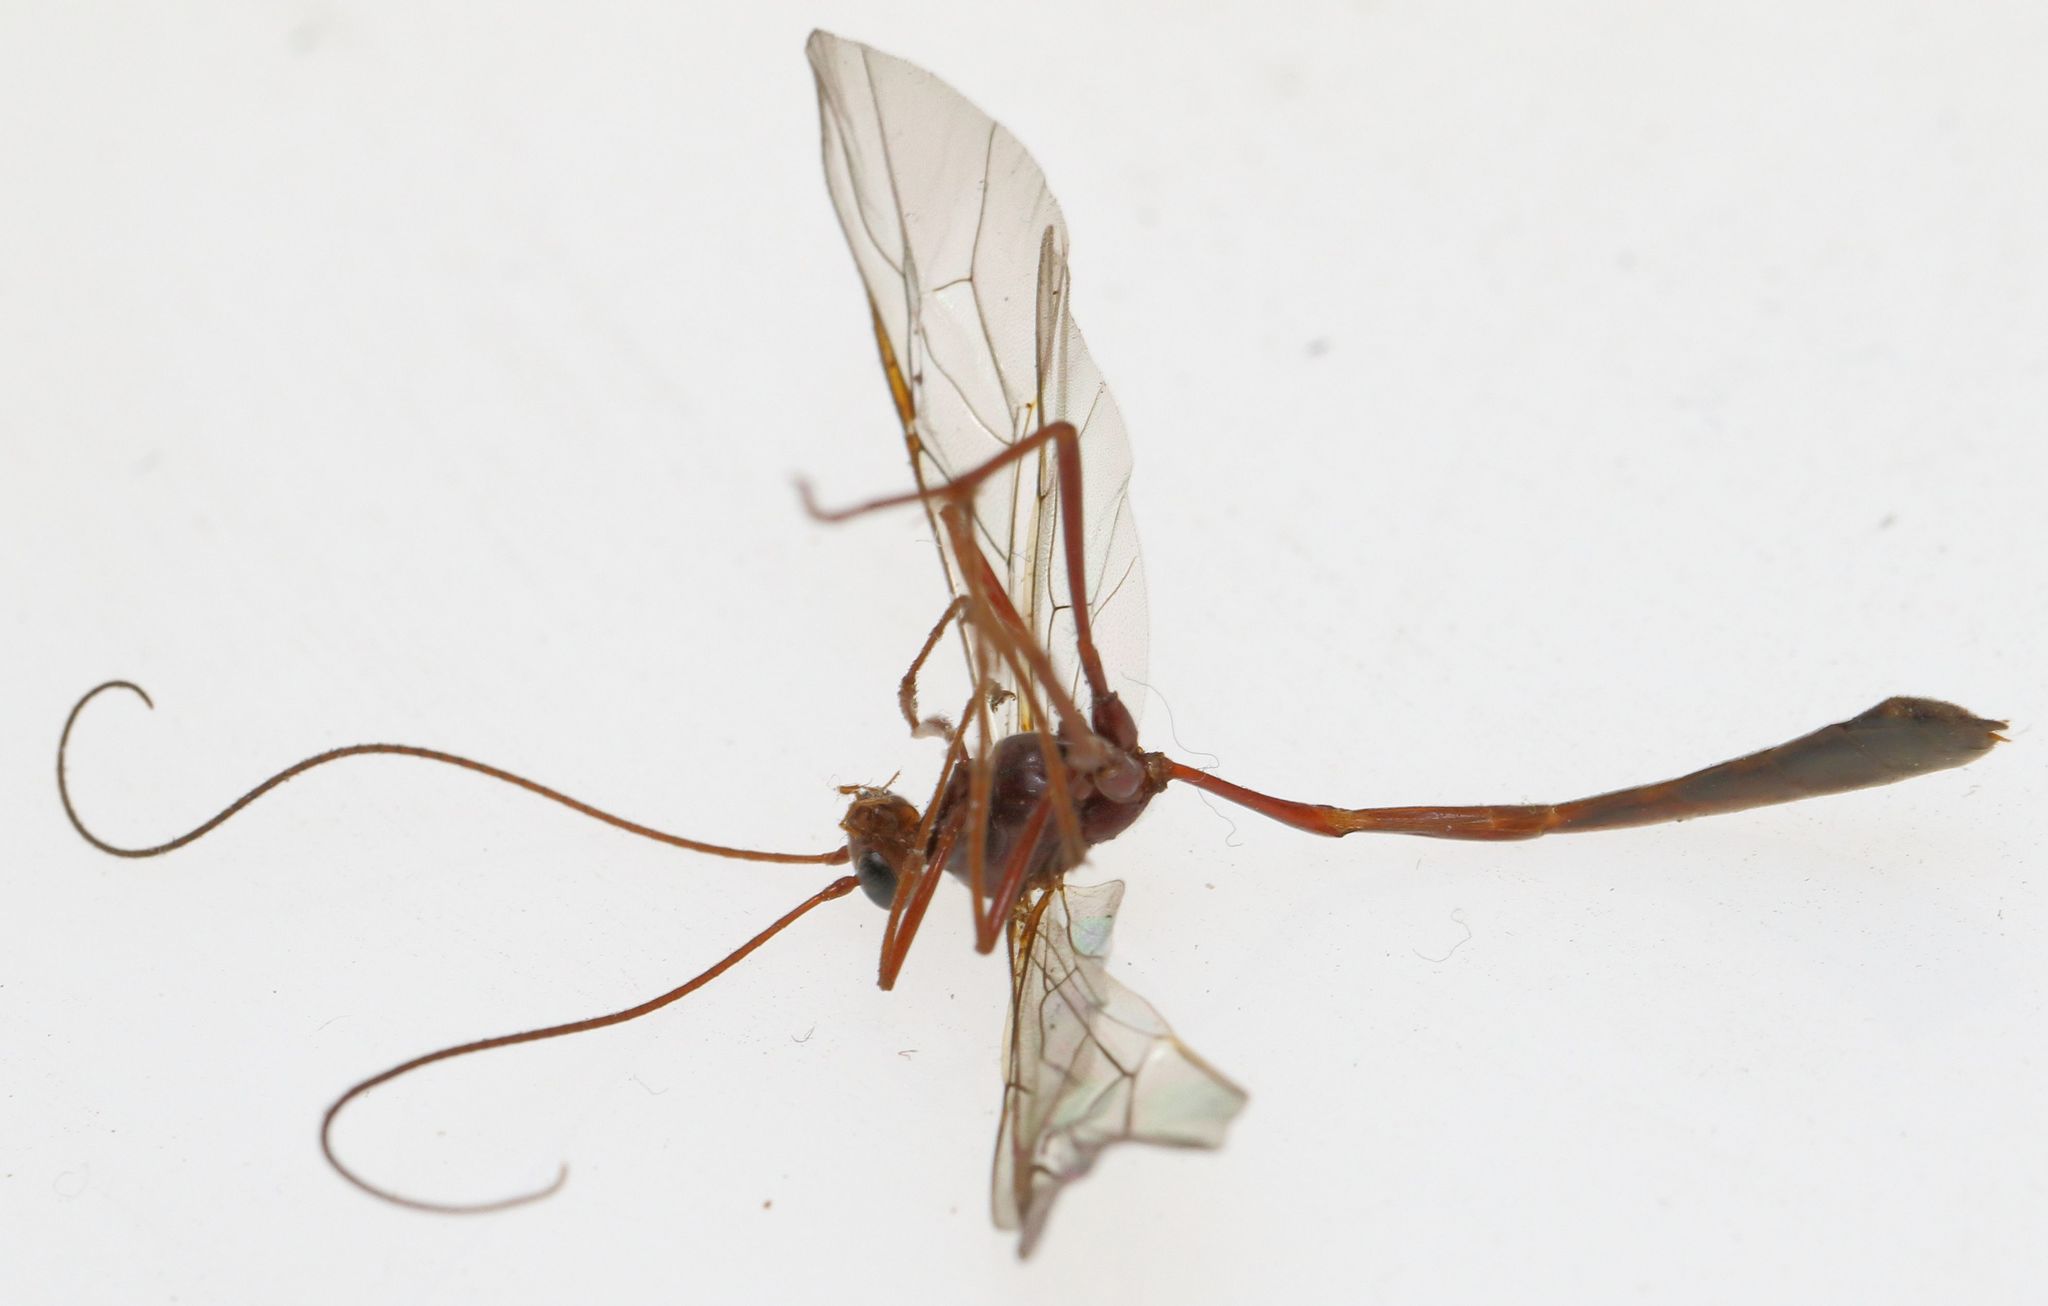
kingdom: Animalia
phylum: Arthropoda
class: Insecta
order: Hymenoptera
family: Ichneumonidae
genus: Enicospilus
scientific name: Enicospilus pacificus
